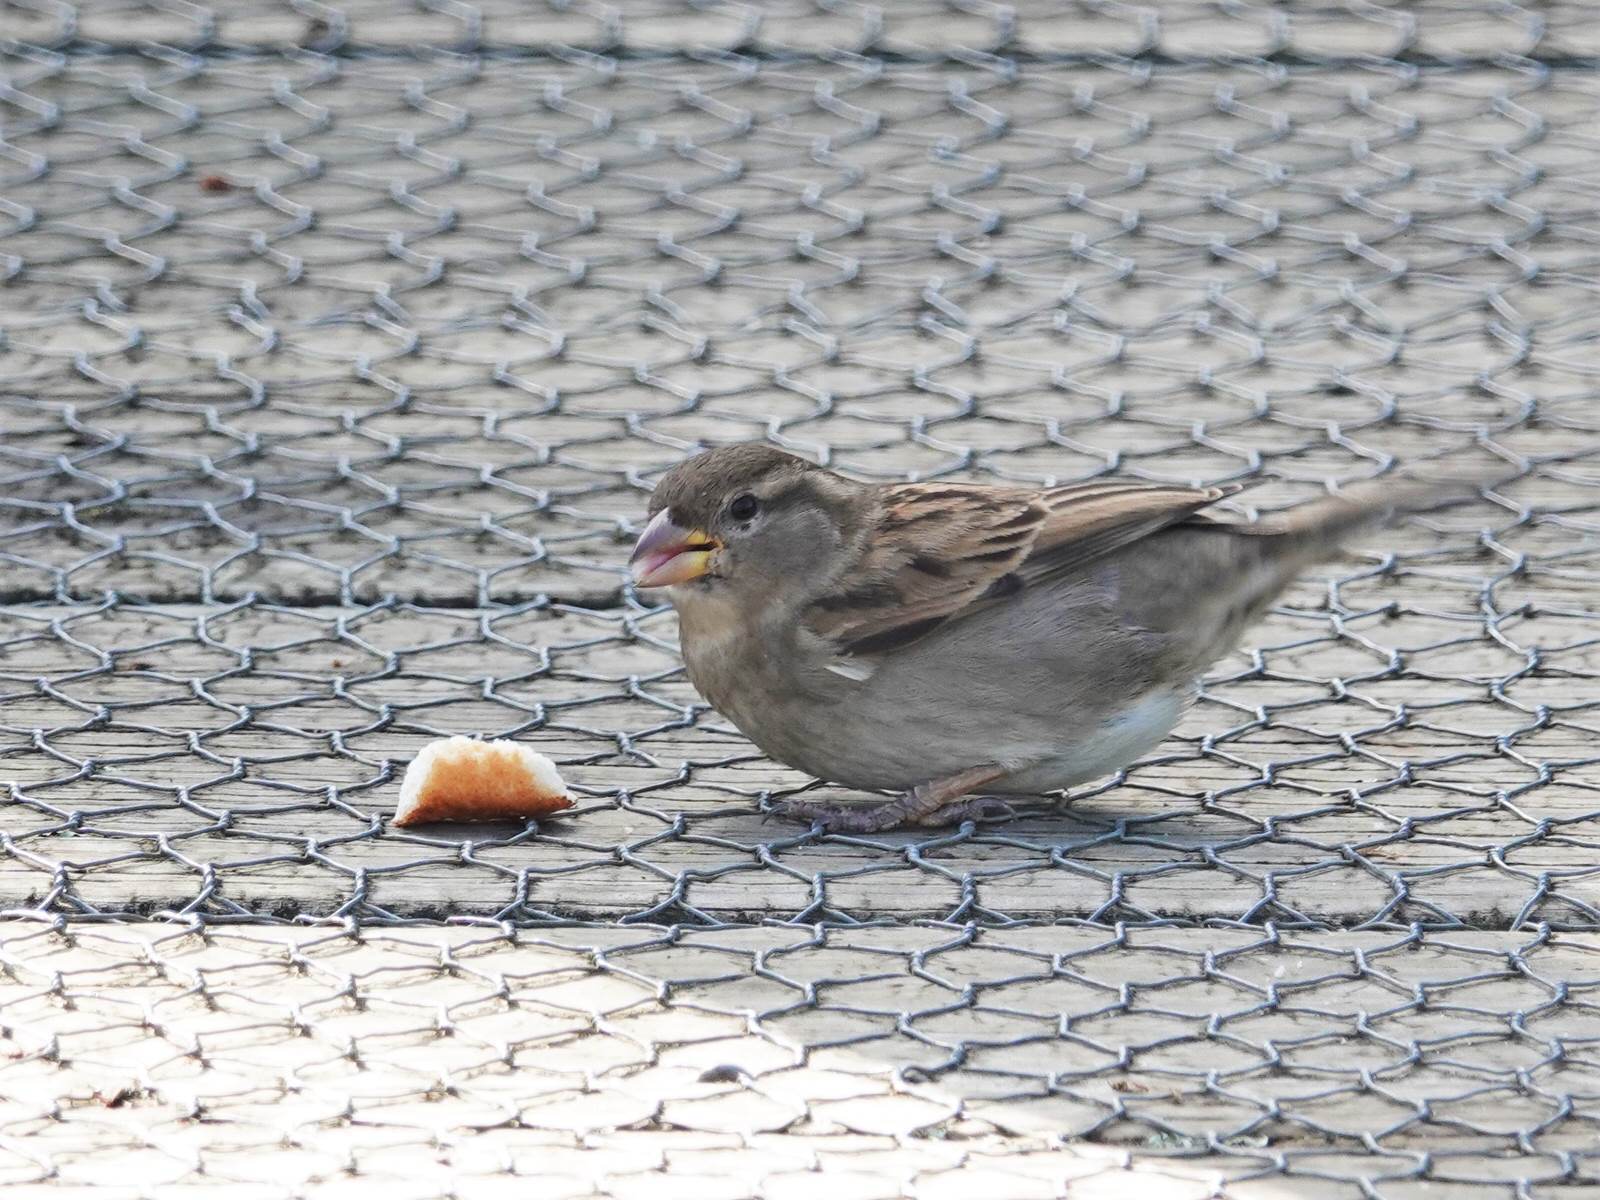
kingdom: Animalia
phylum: Chordata
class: Aves
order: Passeriformes
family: Passeridae
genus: Passer
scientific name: Passer domesticus
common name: House sparrow
